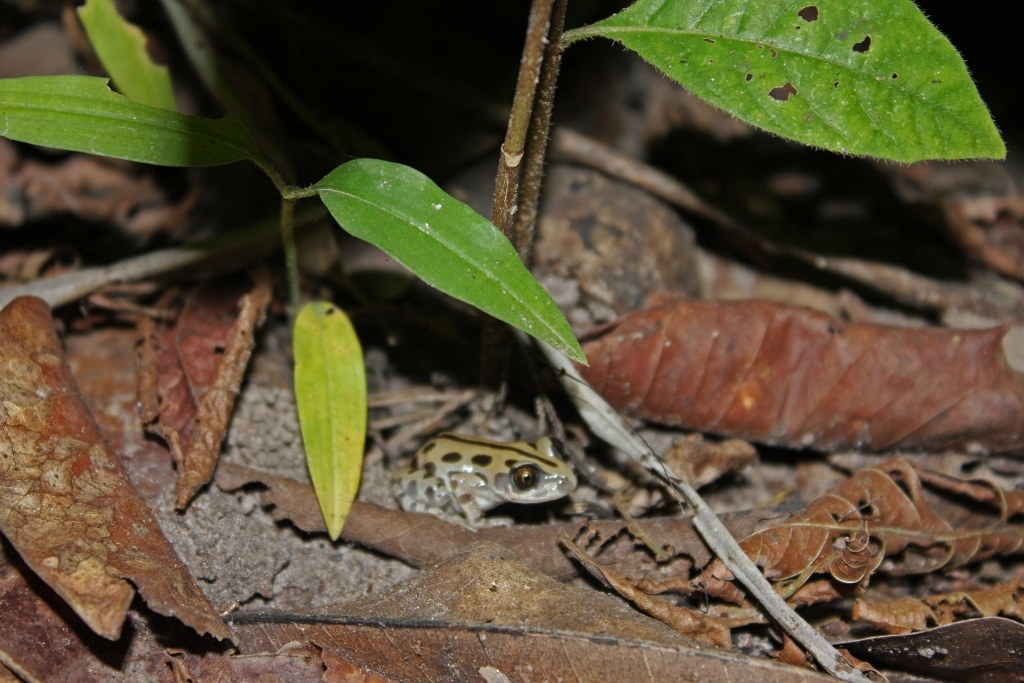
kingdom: Animalia
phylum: Chordata
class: Amphibia
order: Anura
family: Hyperoliidae
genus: Kassina
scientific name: Kassina senegalensis
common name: Senegal land frog
